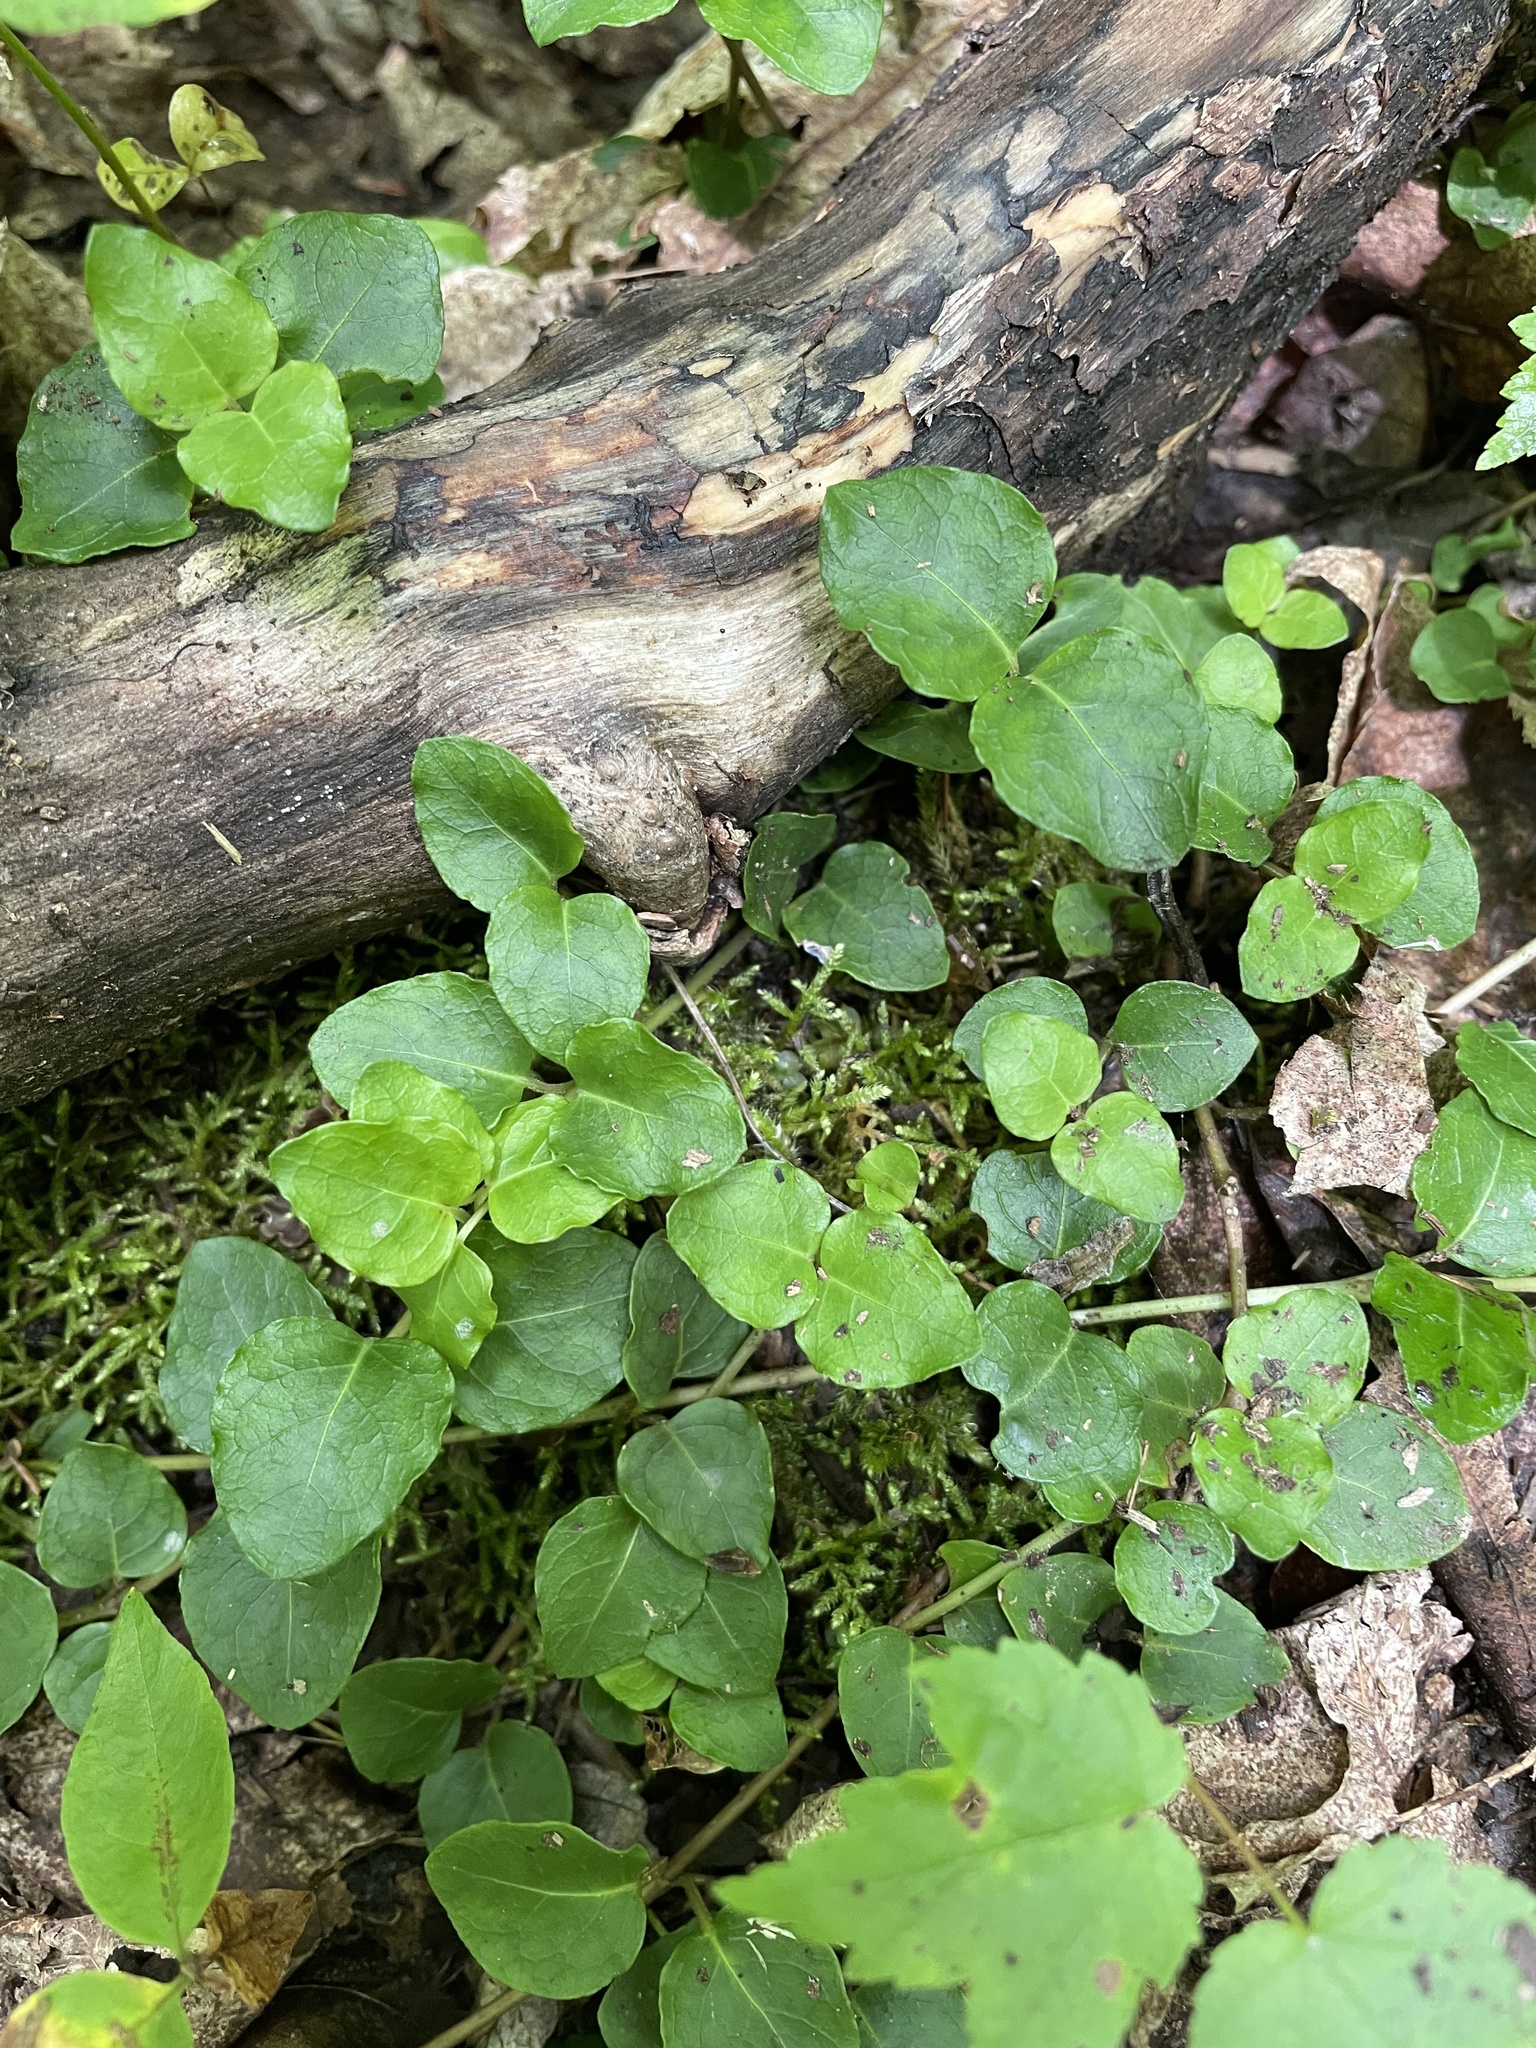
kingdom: Plantae
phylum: Tracheophyta
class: Magnoliopsida
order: Gentianales
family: Rubiaceae
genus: Mitchella
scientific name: Mitchella repens
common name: Partridge-berry
